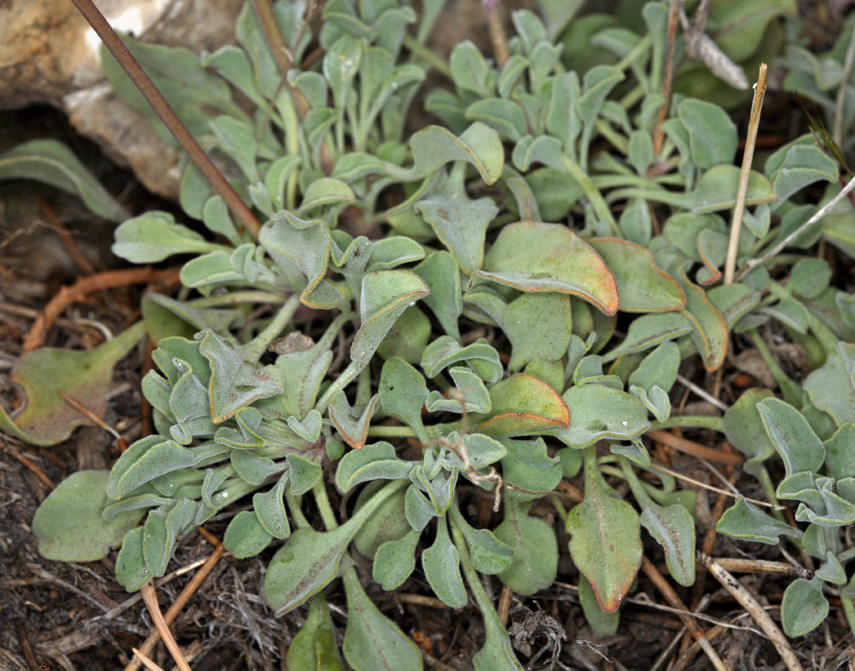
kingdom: Plantae
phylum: Tracheophyta
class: Magnoliopsida
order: Lamiales
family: Plantaginaceae
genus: Penstemon
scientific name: Penstemon scapoides
